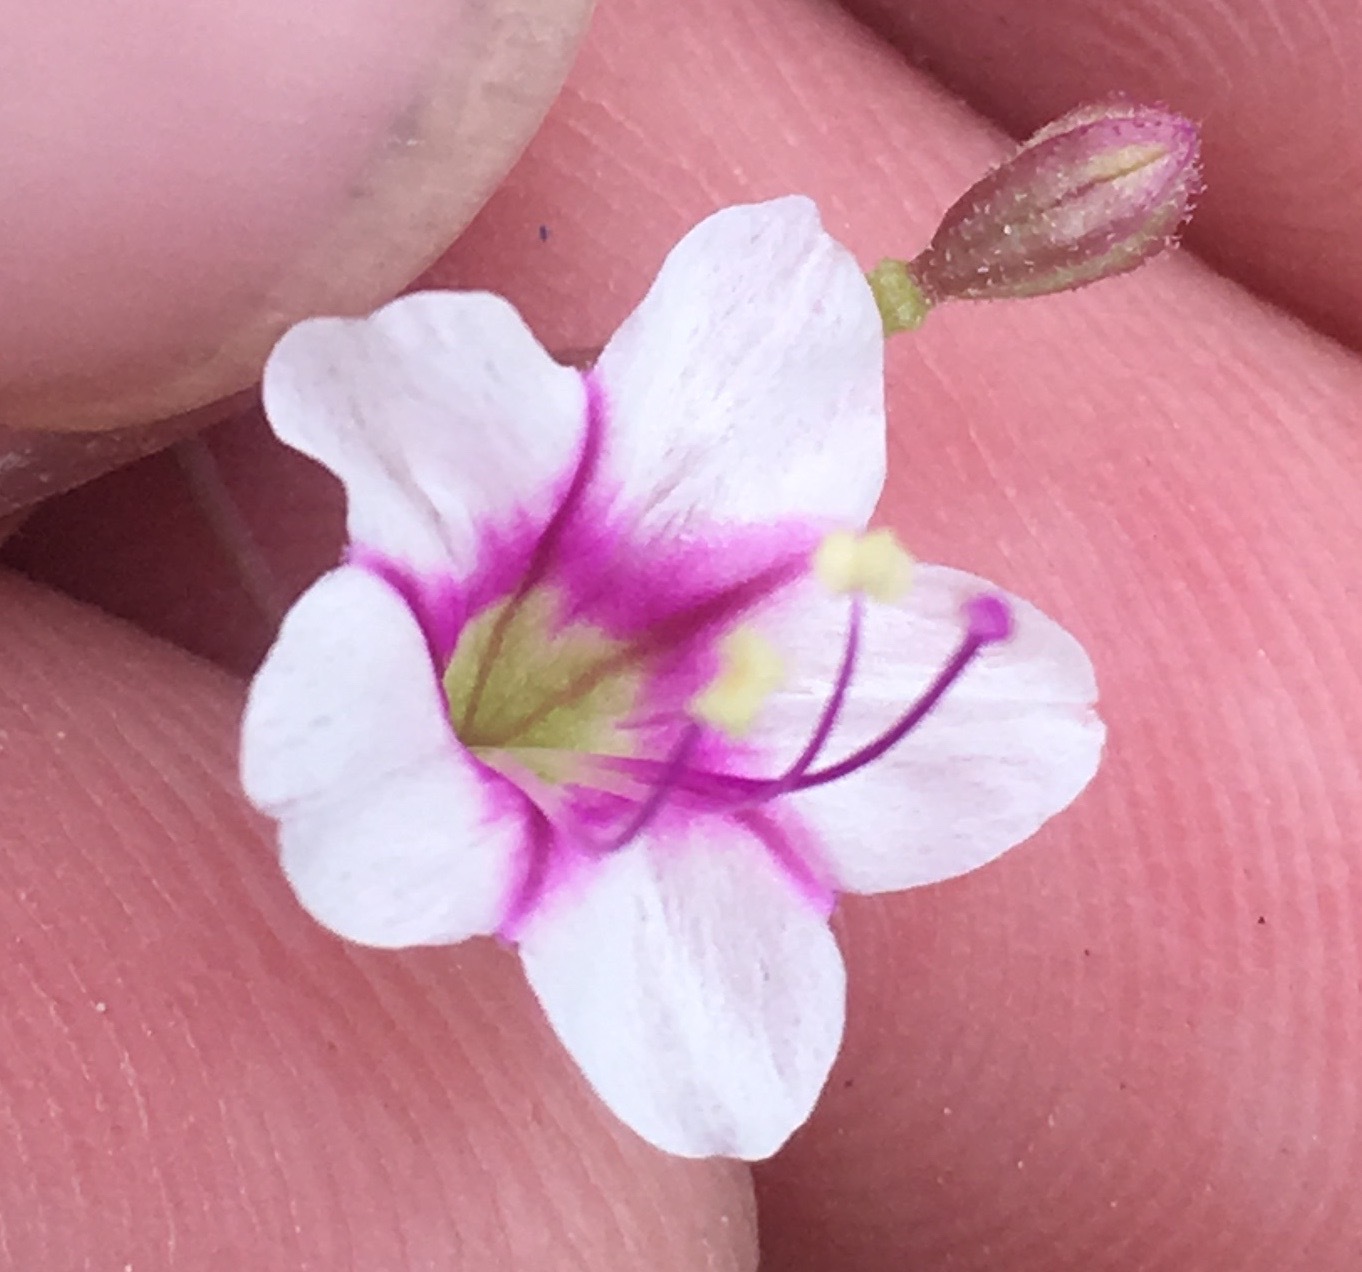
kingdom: Plantae
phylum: Tracheophyta
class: Magnoliopsida
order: Caryophyllales
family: Nyctaginaceae
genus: Commicarpus
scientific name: Commicarpus brandegeei
